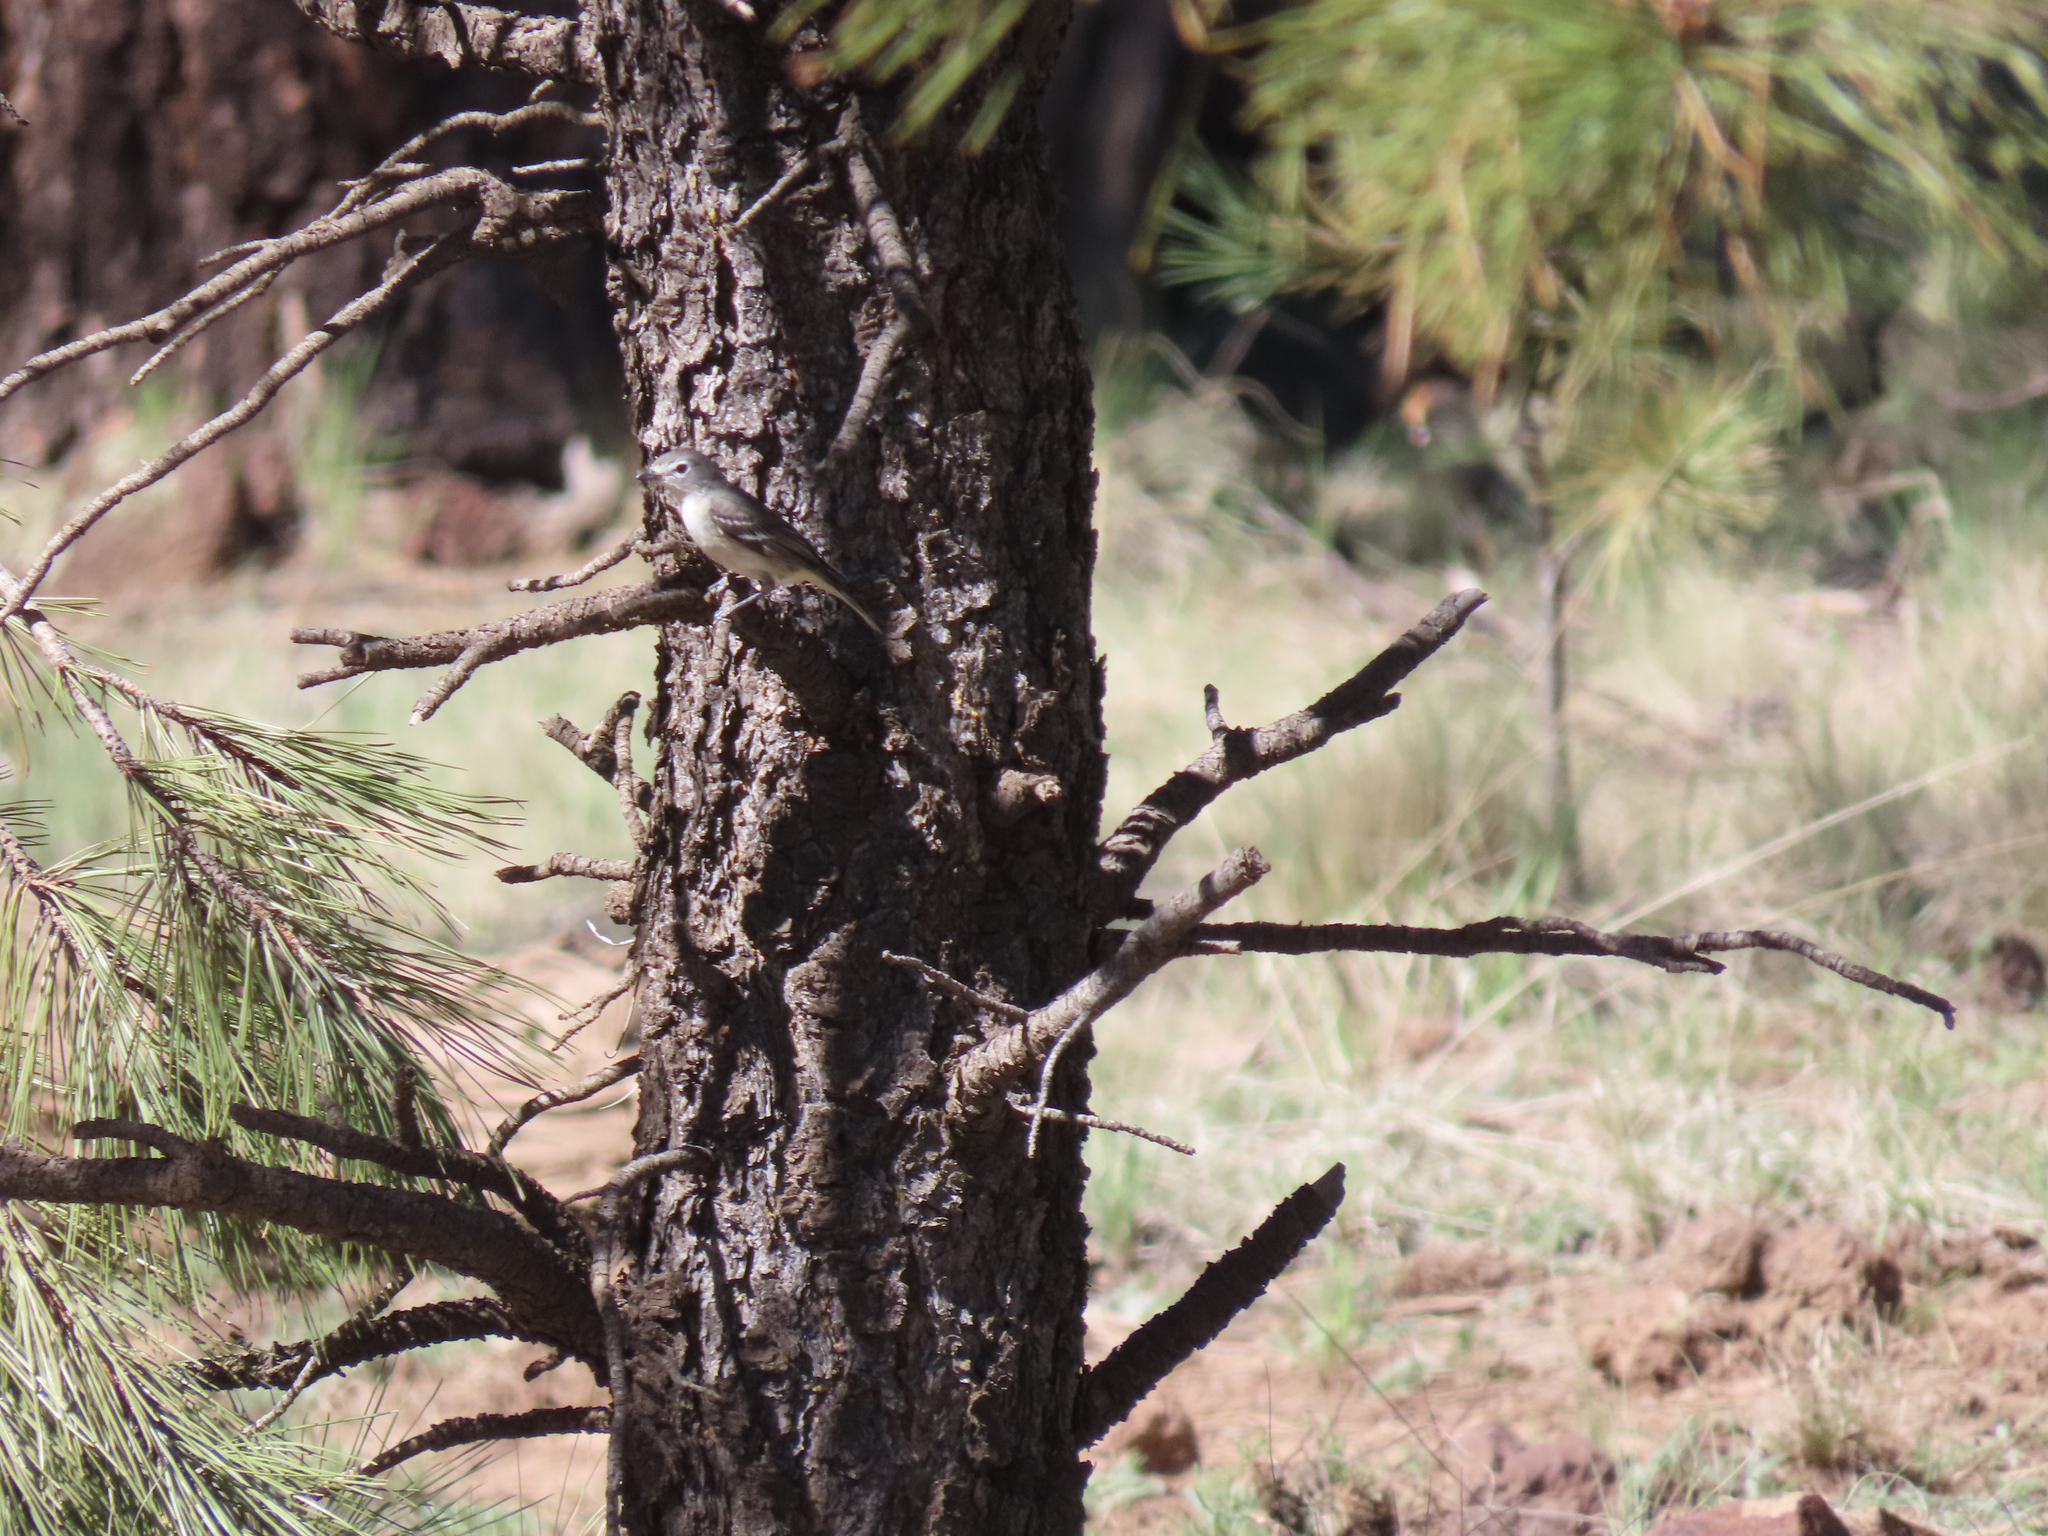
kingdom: Animalia
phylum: Chordata
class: Aves
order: Passeriformes
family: Vireonidae
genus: Vireo
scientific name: Vireo plumbeus
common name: Plumbeous vireo
